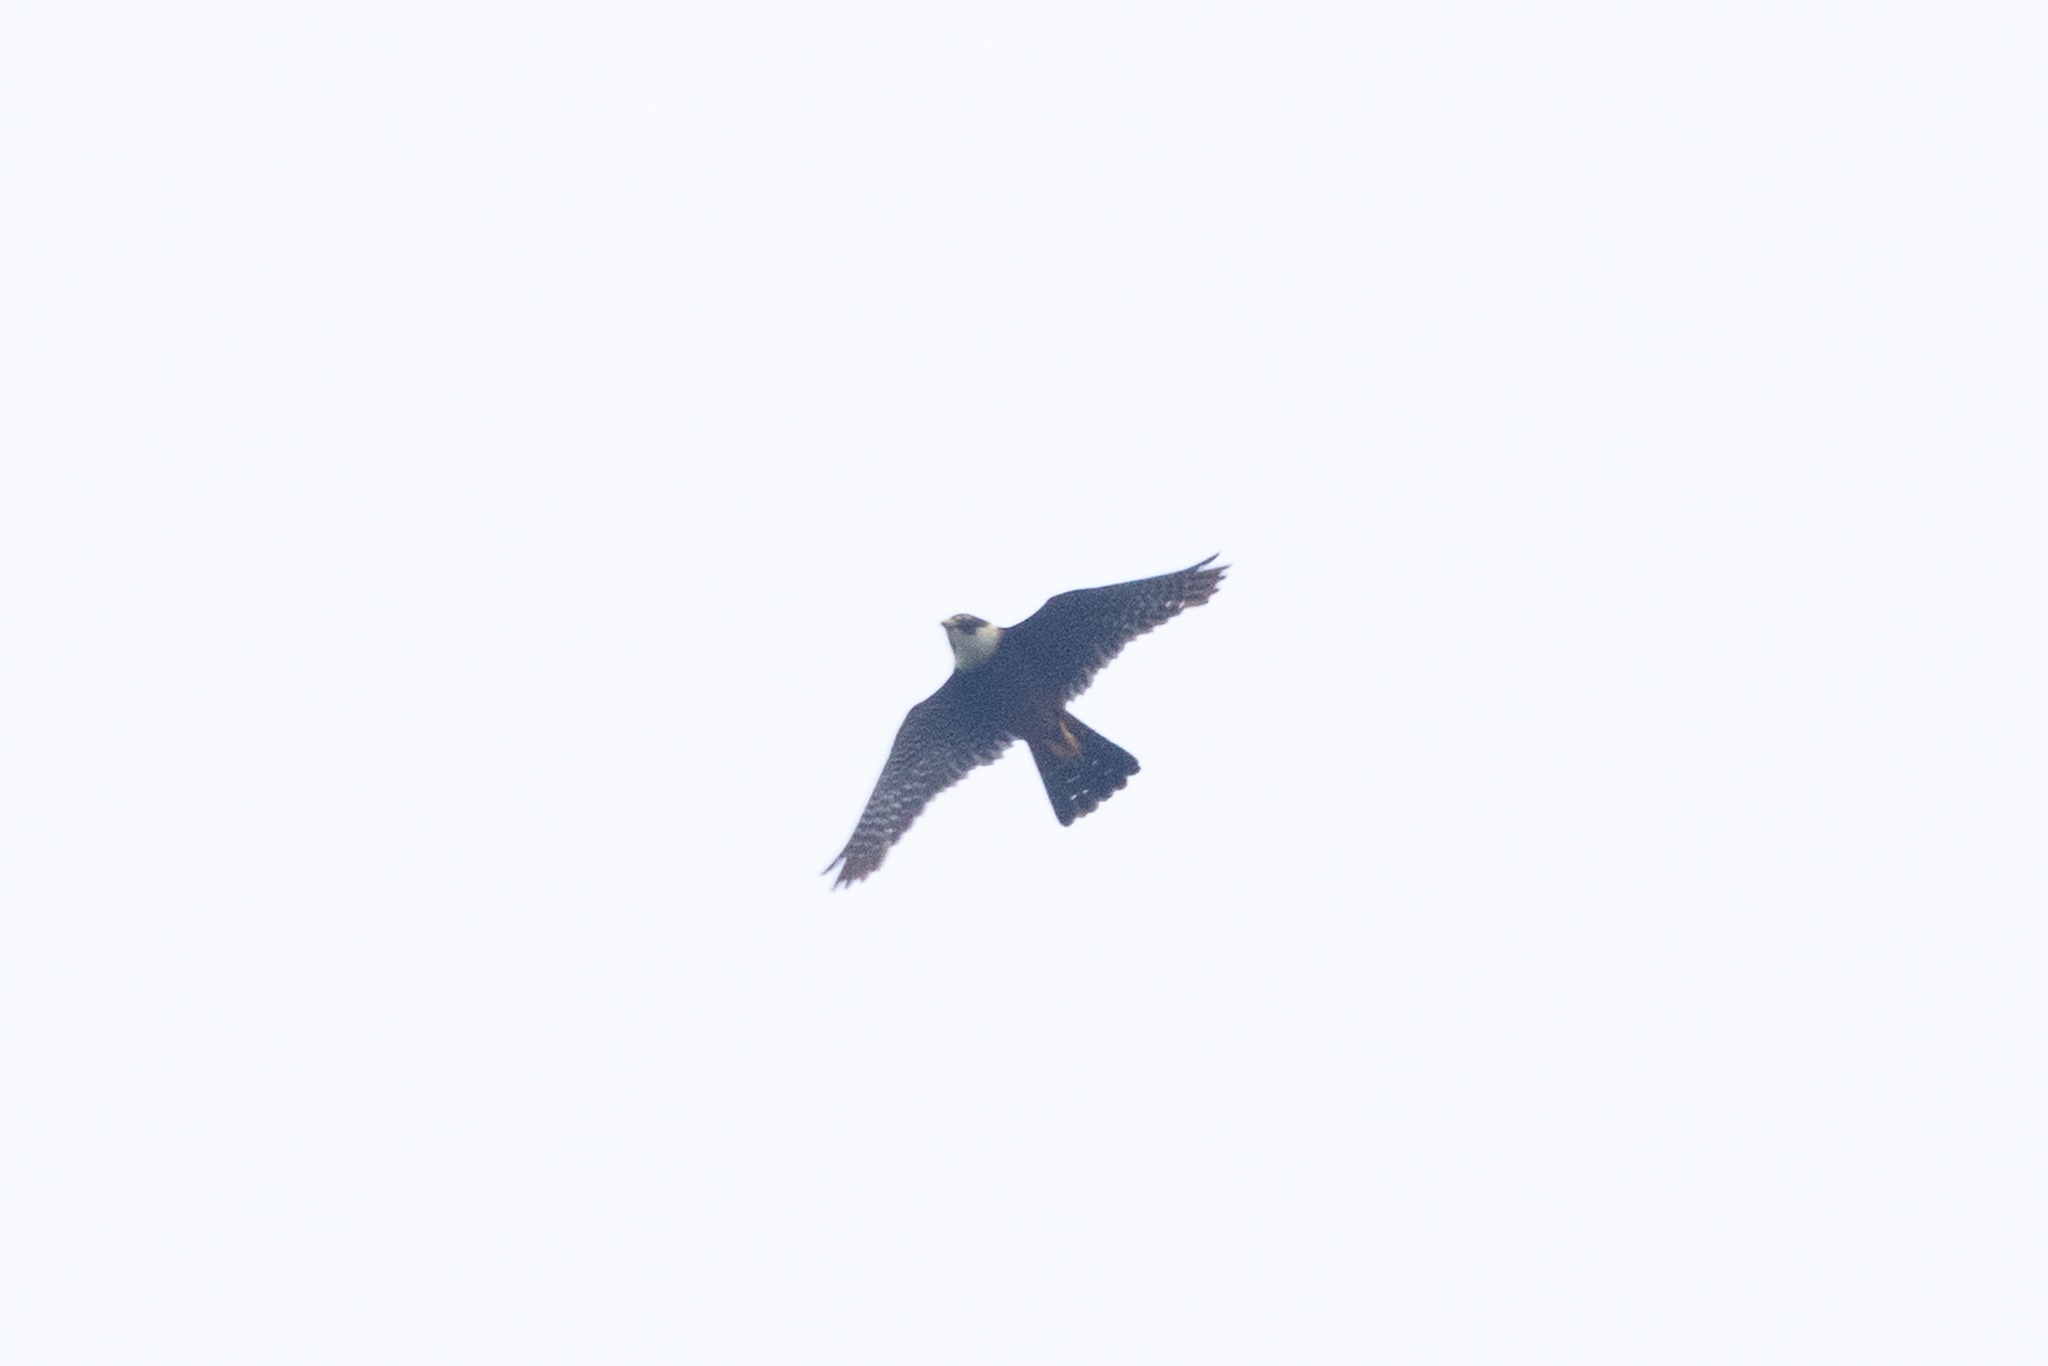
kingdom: Animalia
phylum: Chordata
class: Aves
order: Falconiformes
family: Falconidae
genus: Falco
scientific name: Falco rufigularis
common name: Bat falcon
